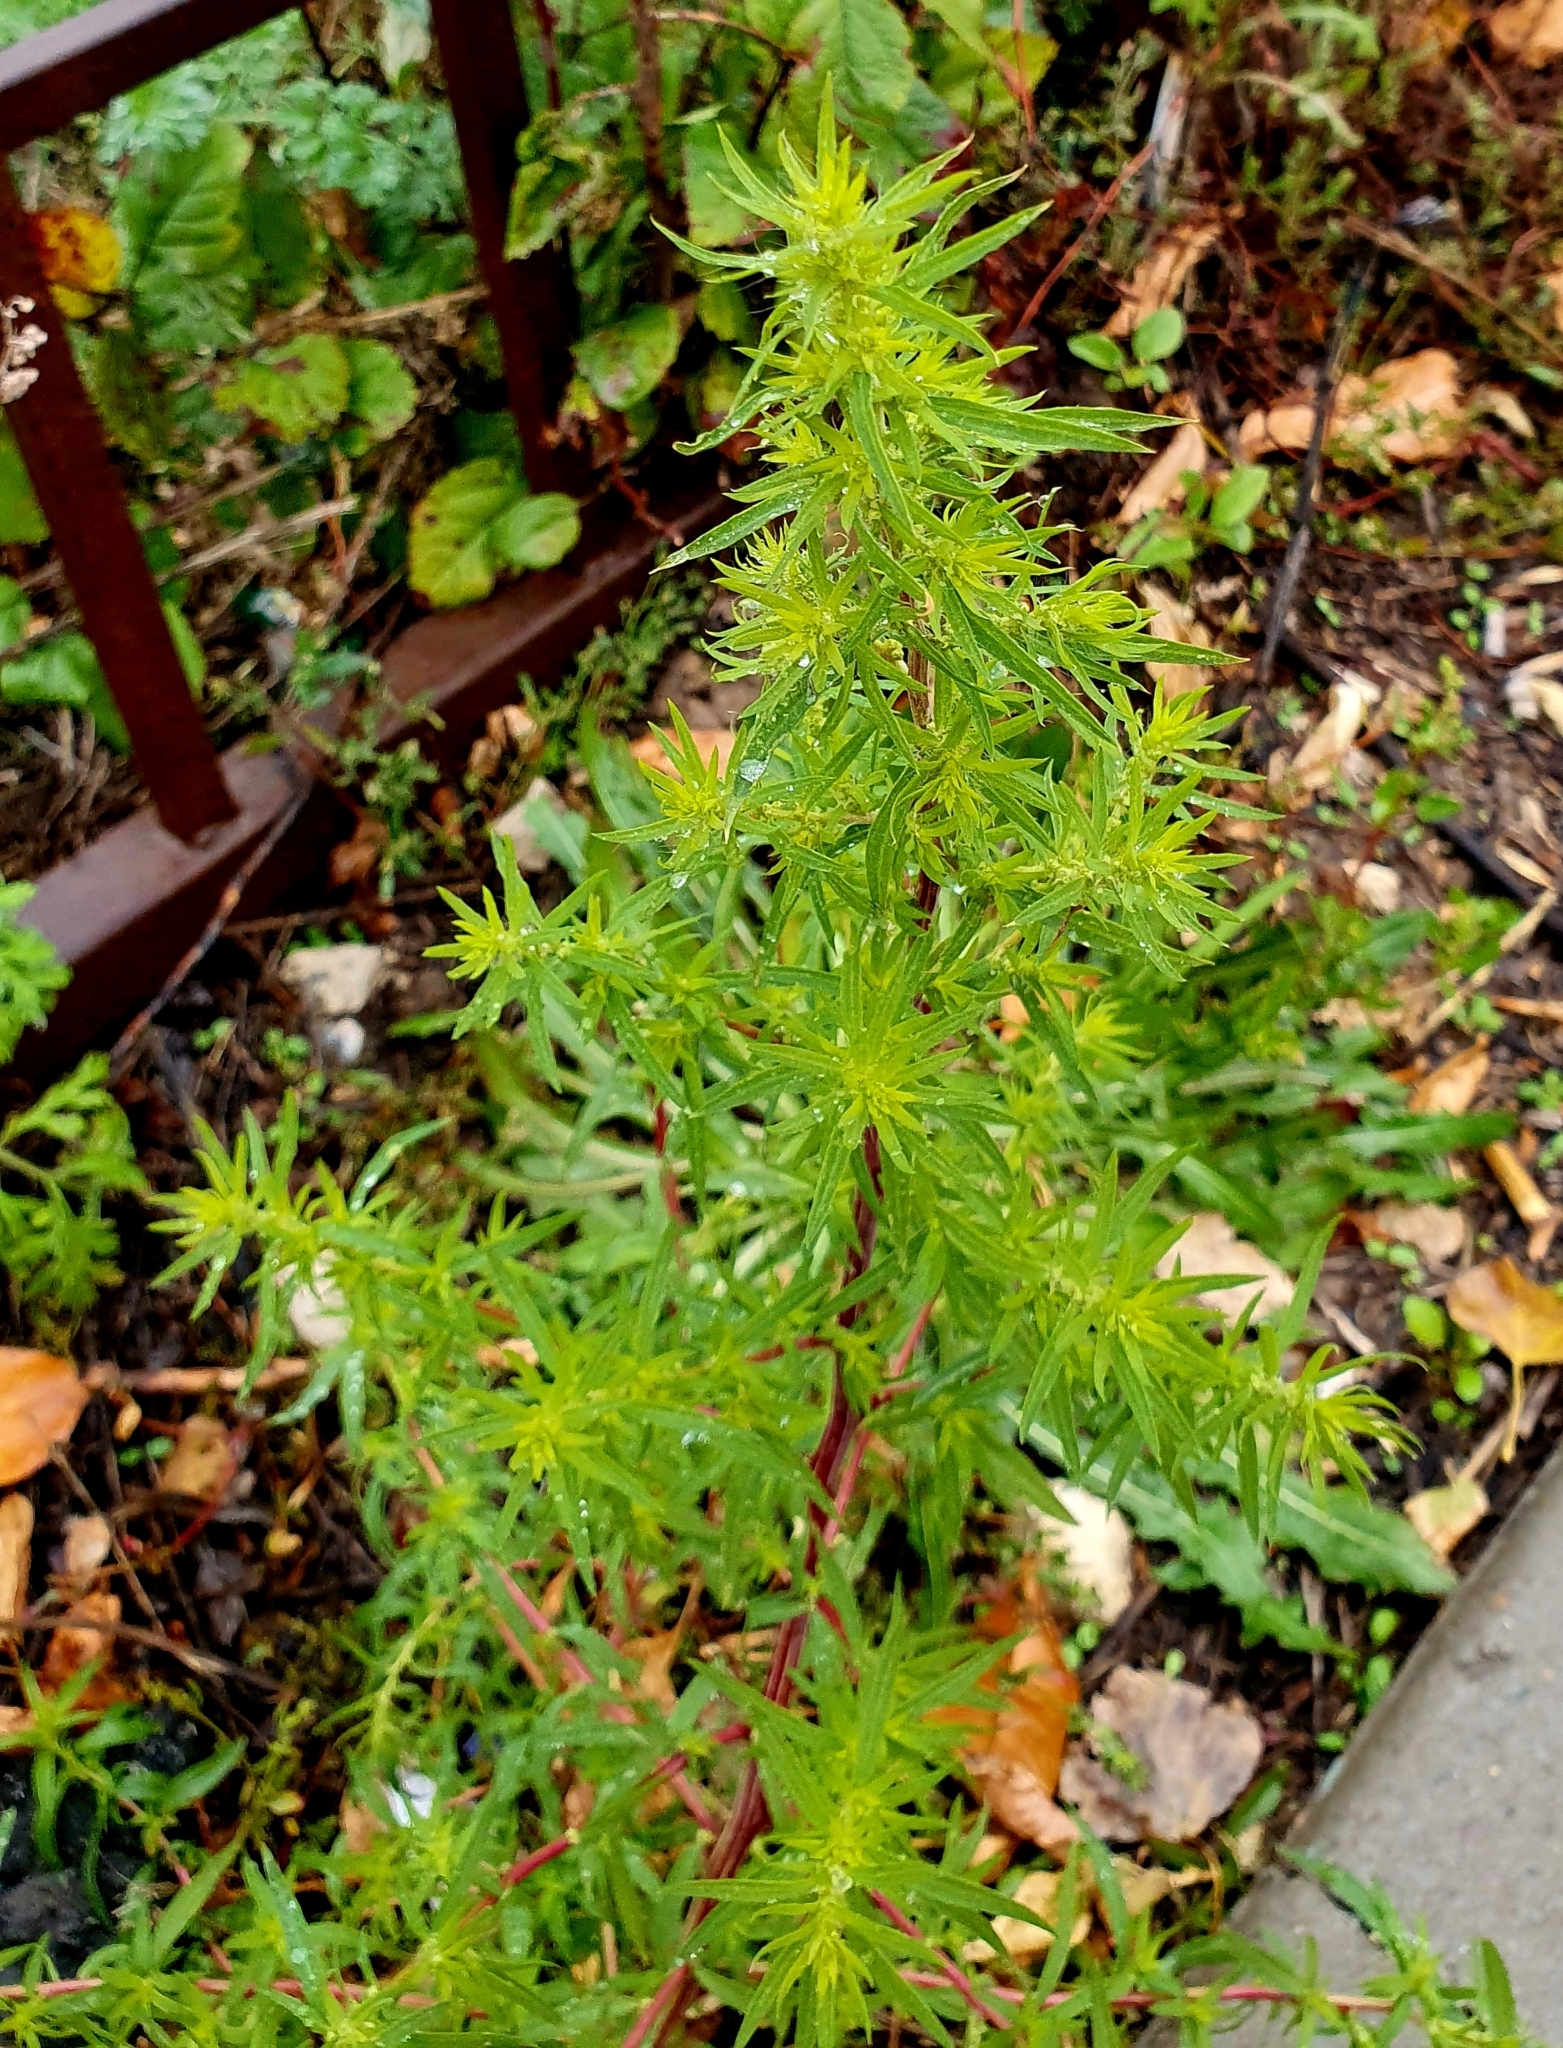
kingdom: Plantae
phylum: Tracheophyta
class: Magnoliopsida
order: Caryophyllales
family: Amaranthaceae
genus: Bassia
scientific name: Bassia scoparia
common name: Belvedere
